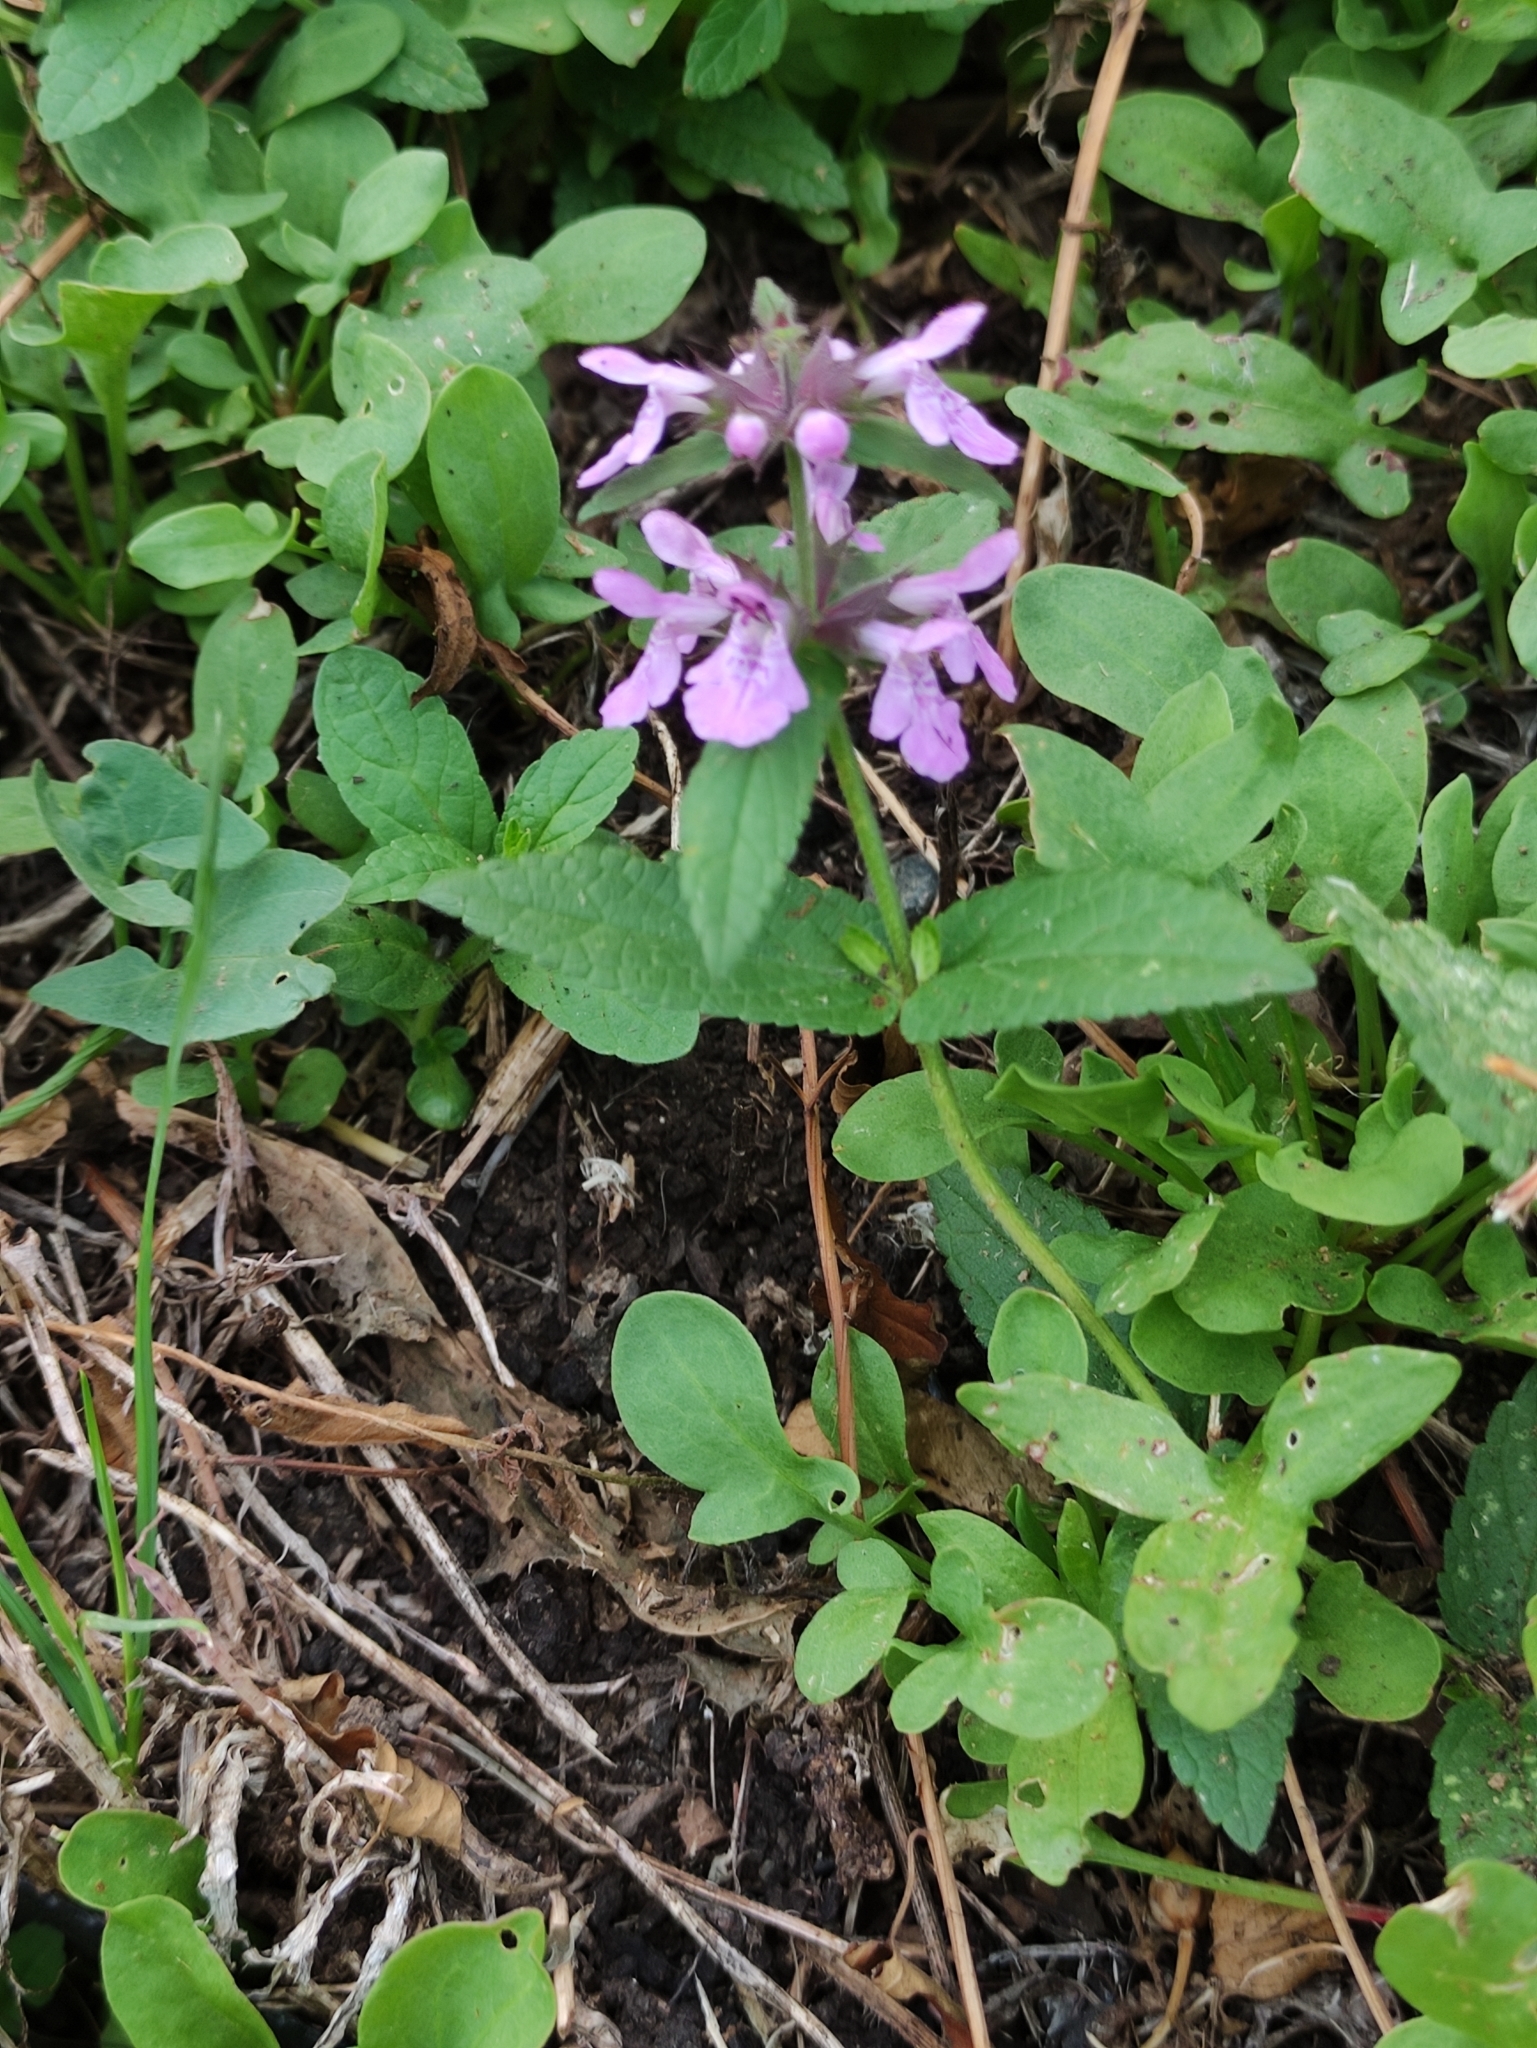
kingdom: Plantae
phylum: Tracheophyta
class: Magnoliopsida
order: Lamiales
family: Lamiaceae
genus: Stachys
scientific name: Stachys palustris
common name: Marsh woundwort
